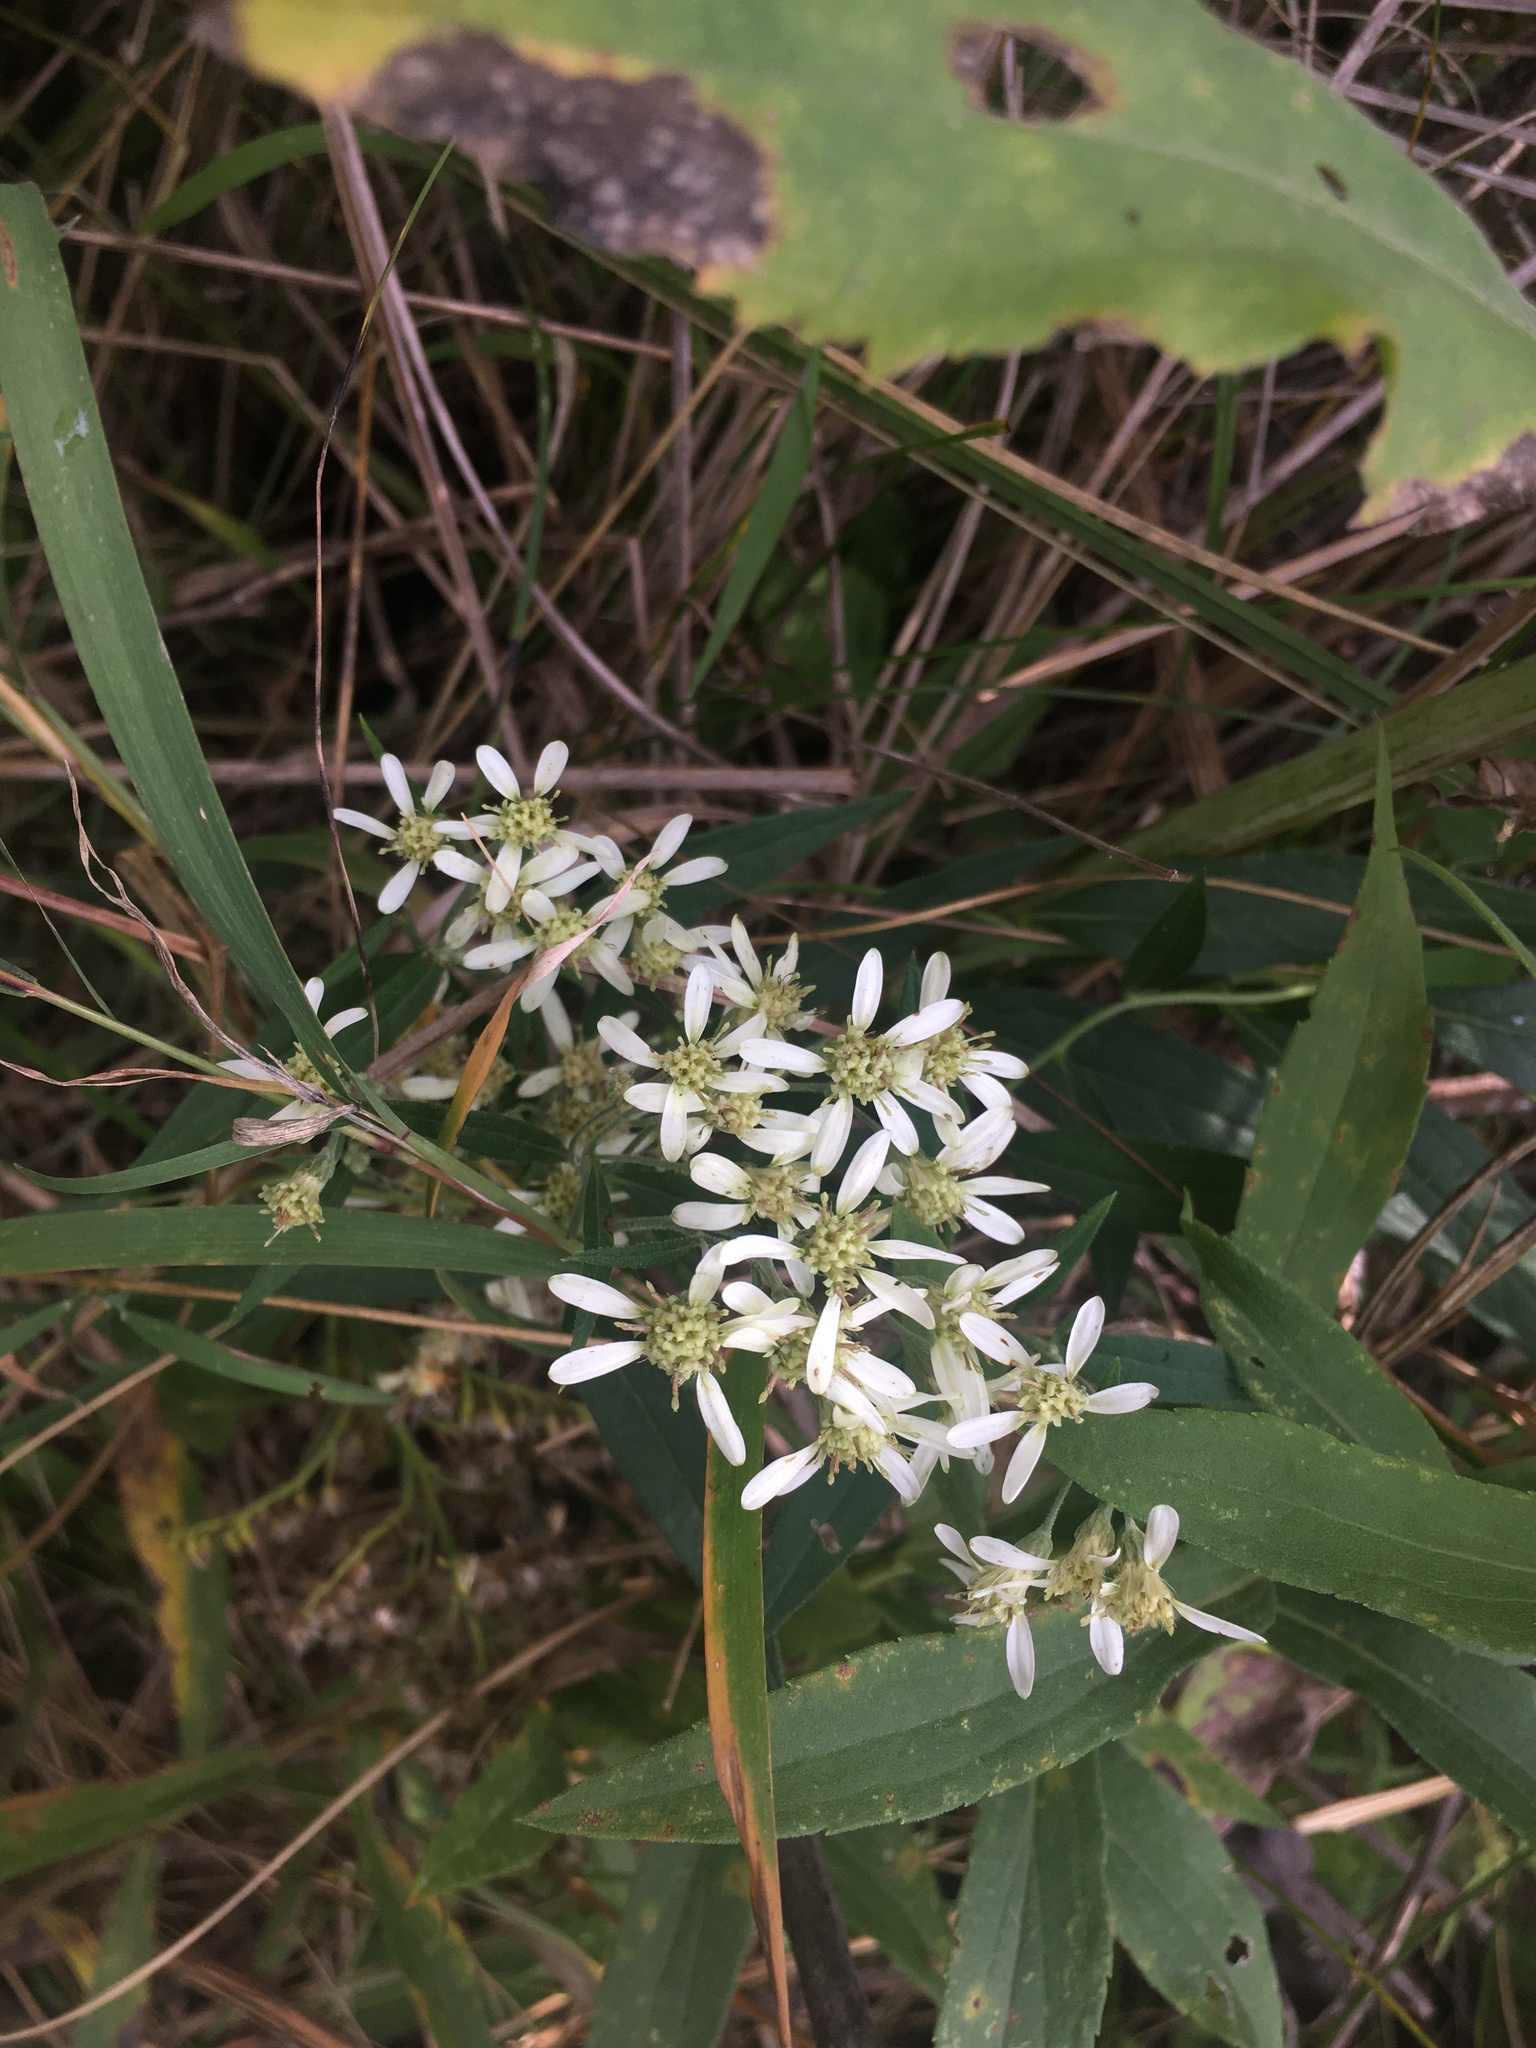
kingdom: Plantae
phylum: Tracheophyta
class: Magnoliopsida
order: Asterales
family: Asteraceae
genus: Doellingeria
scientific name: Doellingeria umbellata
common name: Flat-top white aster
